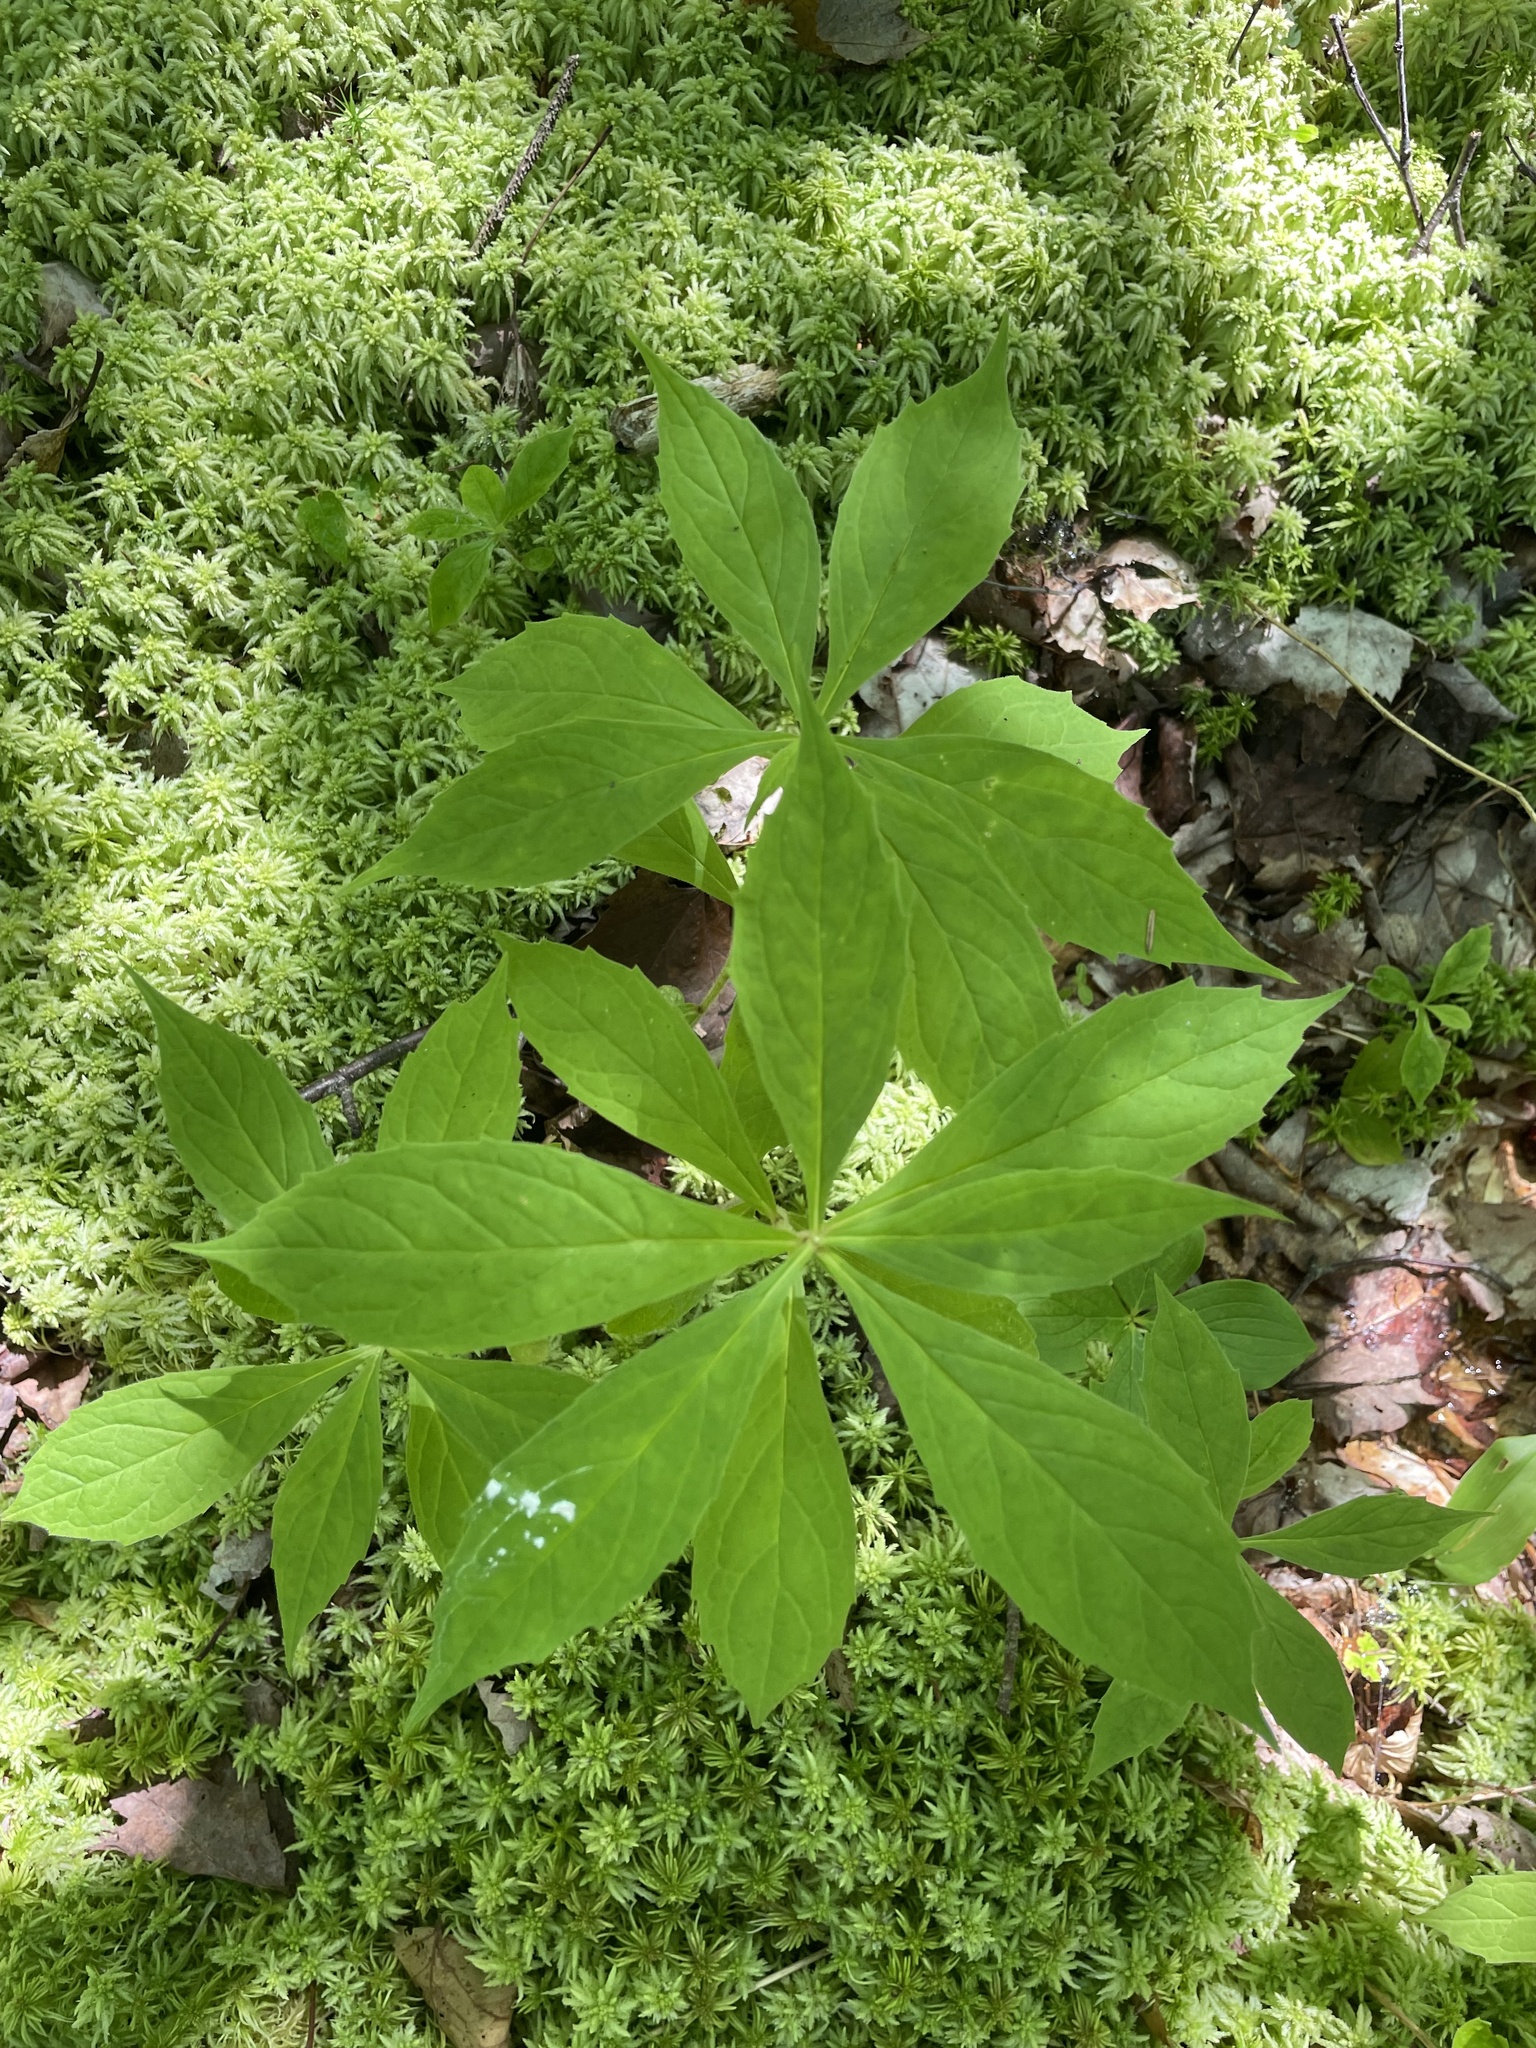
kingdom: Plantae
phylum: Tracheophyta
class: Magnoliopsida
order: Asterales
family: Asteraceae
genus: Oclemena
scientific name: Oclemena acuminata
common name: Mountain aster
